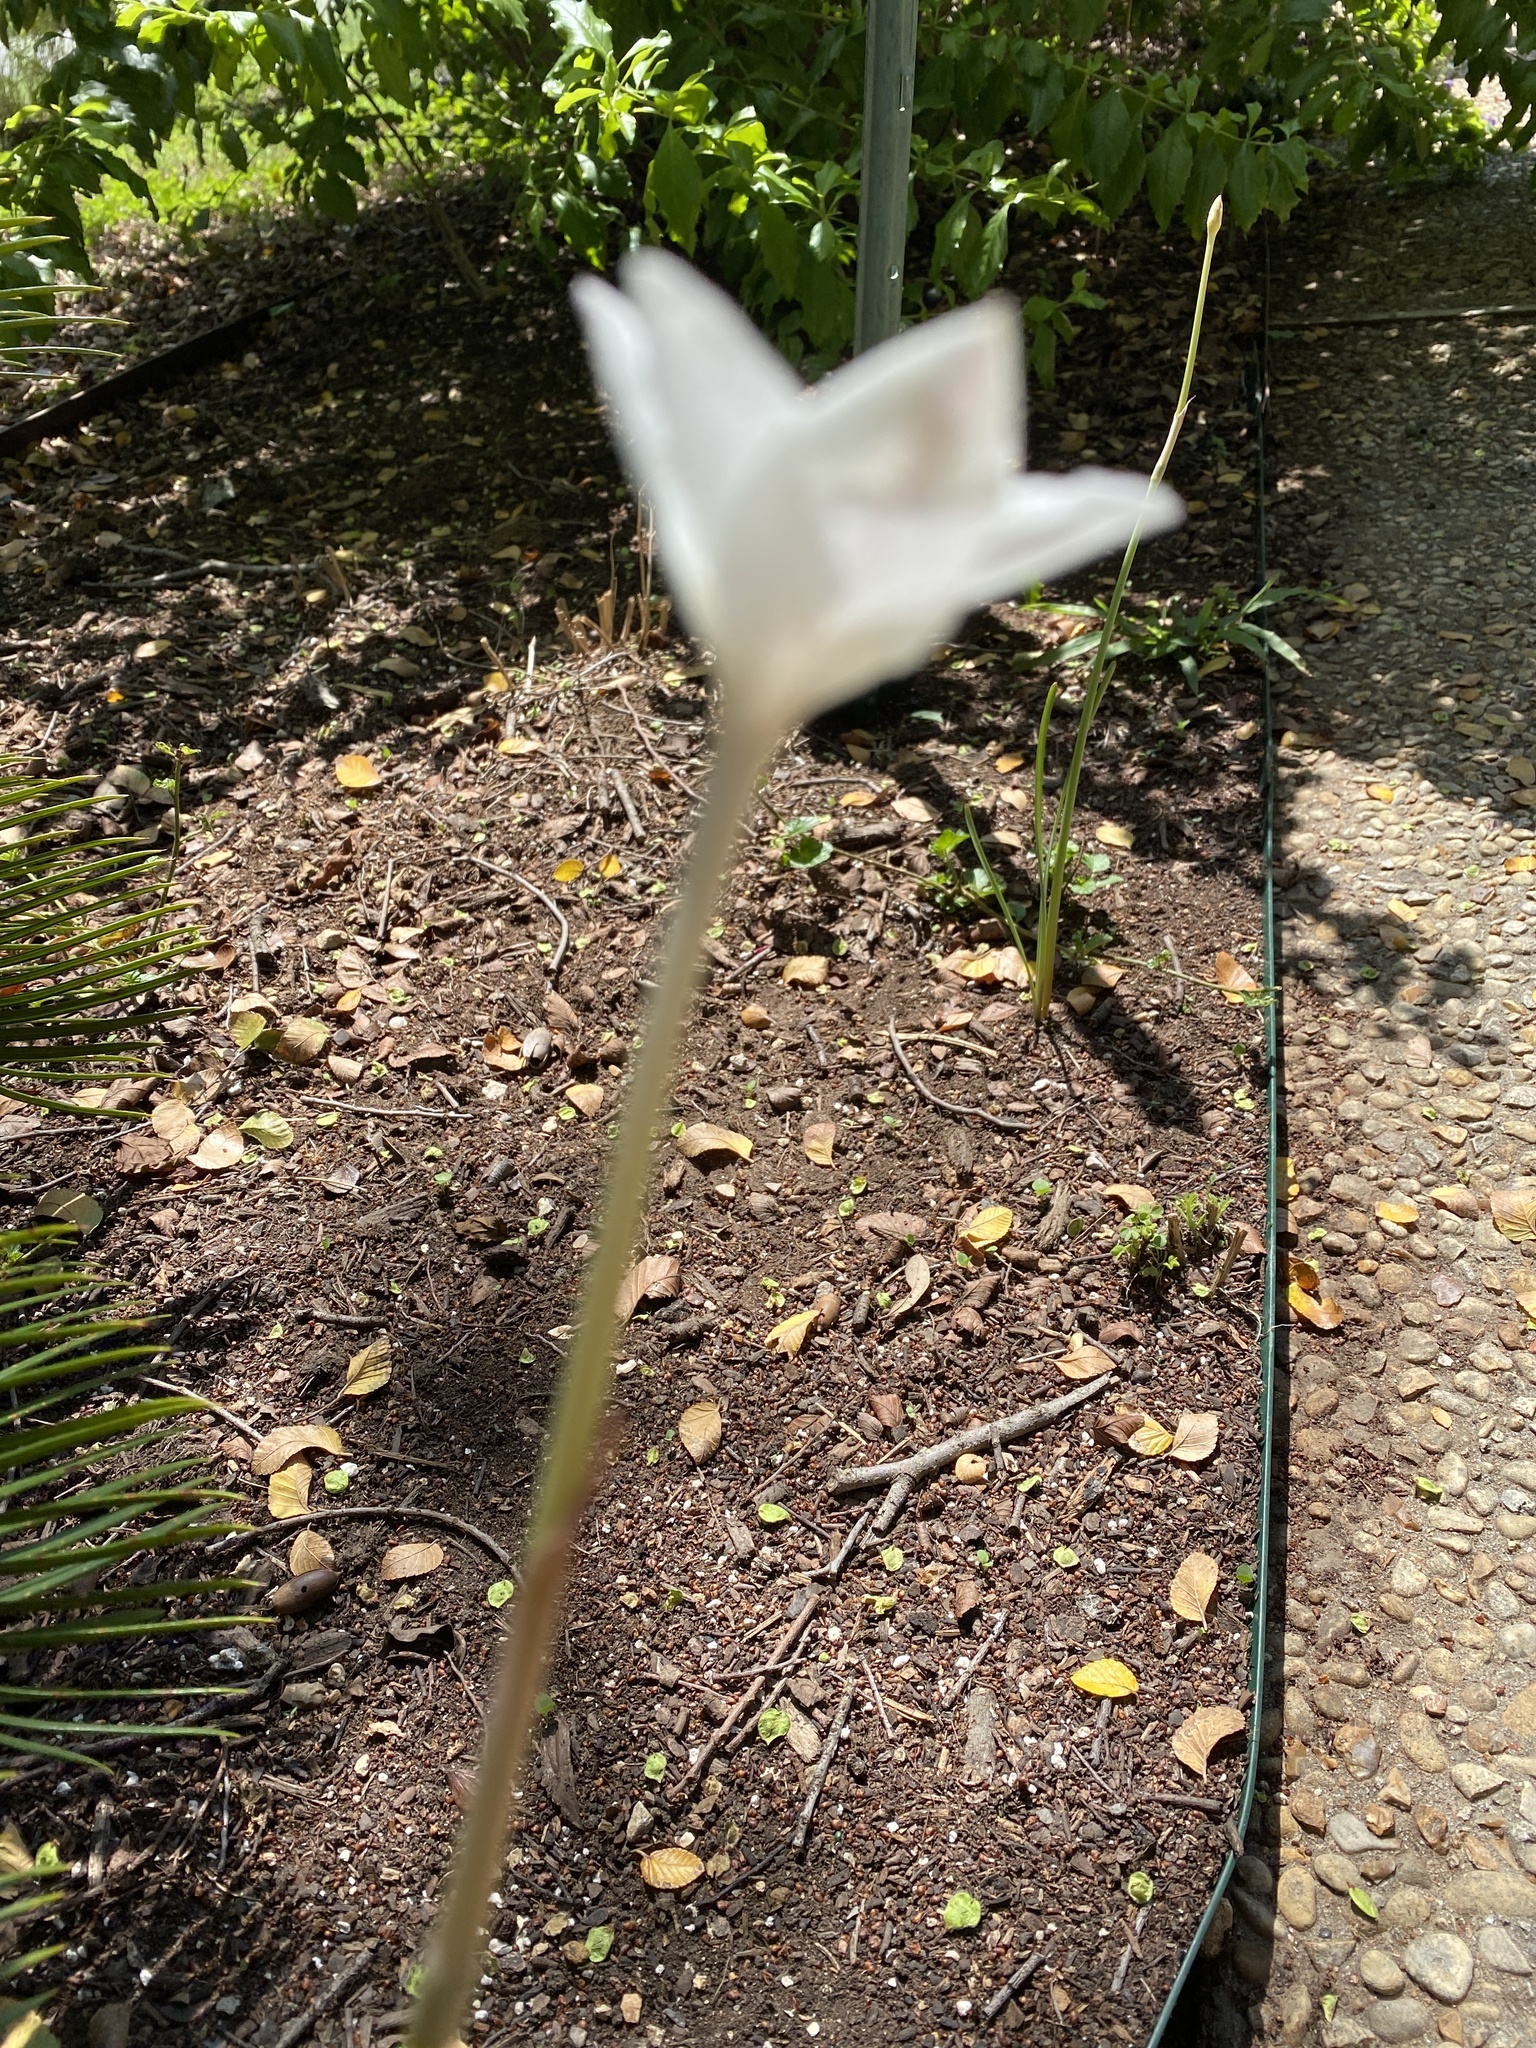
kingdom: Plantae
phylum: Tracheophyta
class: Liliopsida
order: Asparagales
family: Amaryllidaceae
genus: Zephyranthes
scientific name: Zephyranthes chlorosolen
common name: Evening rain-lily
